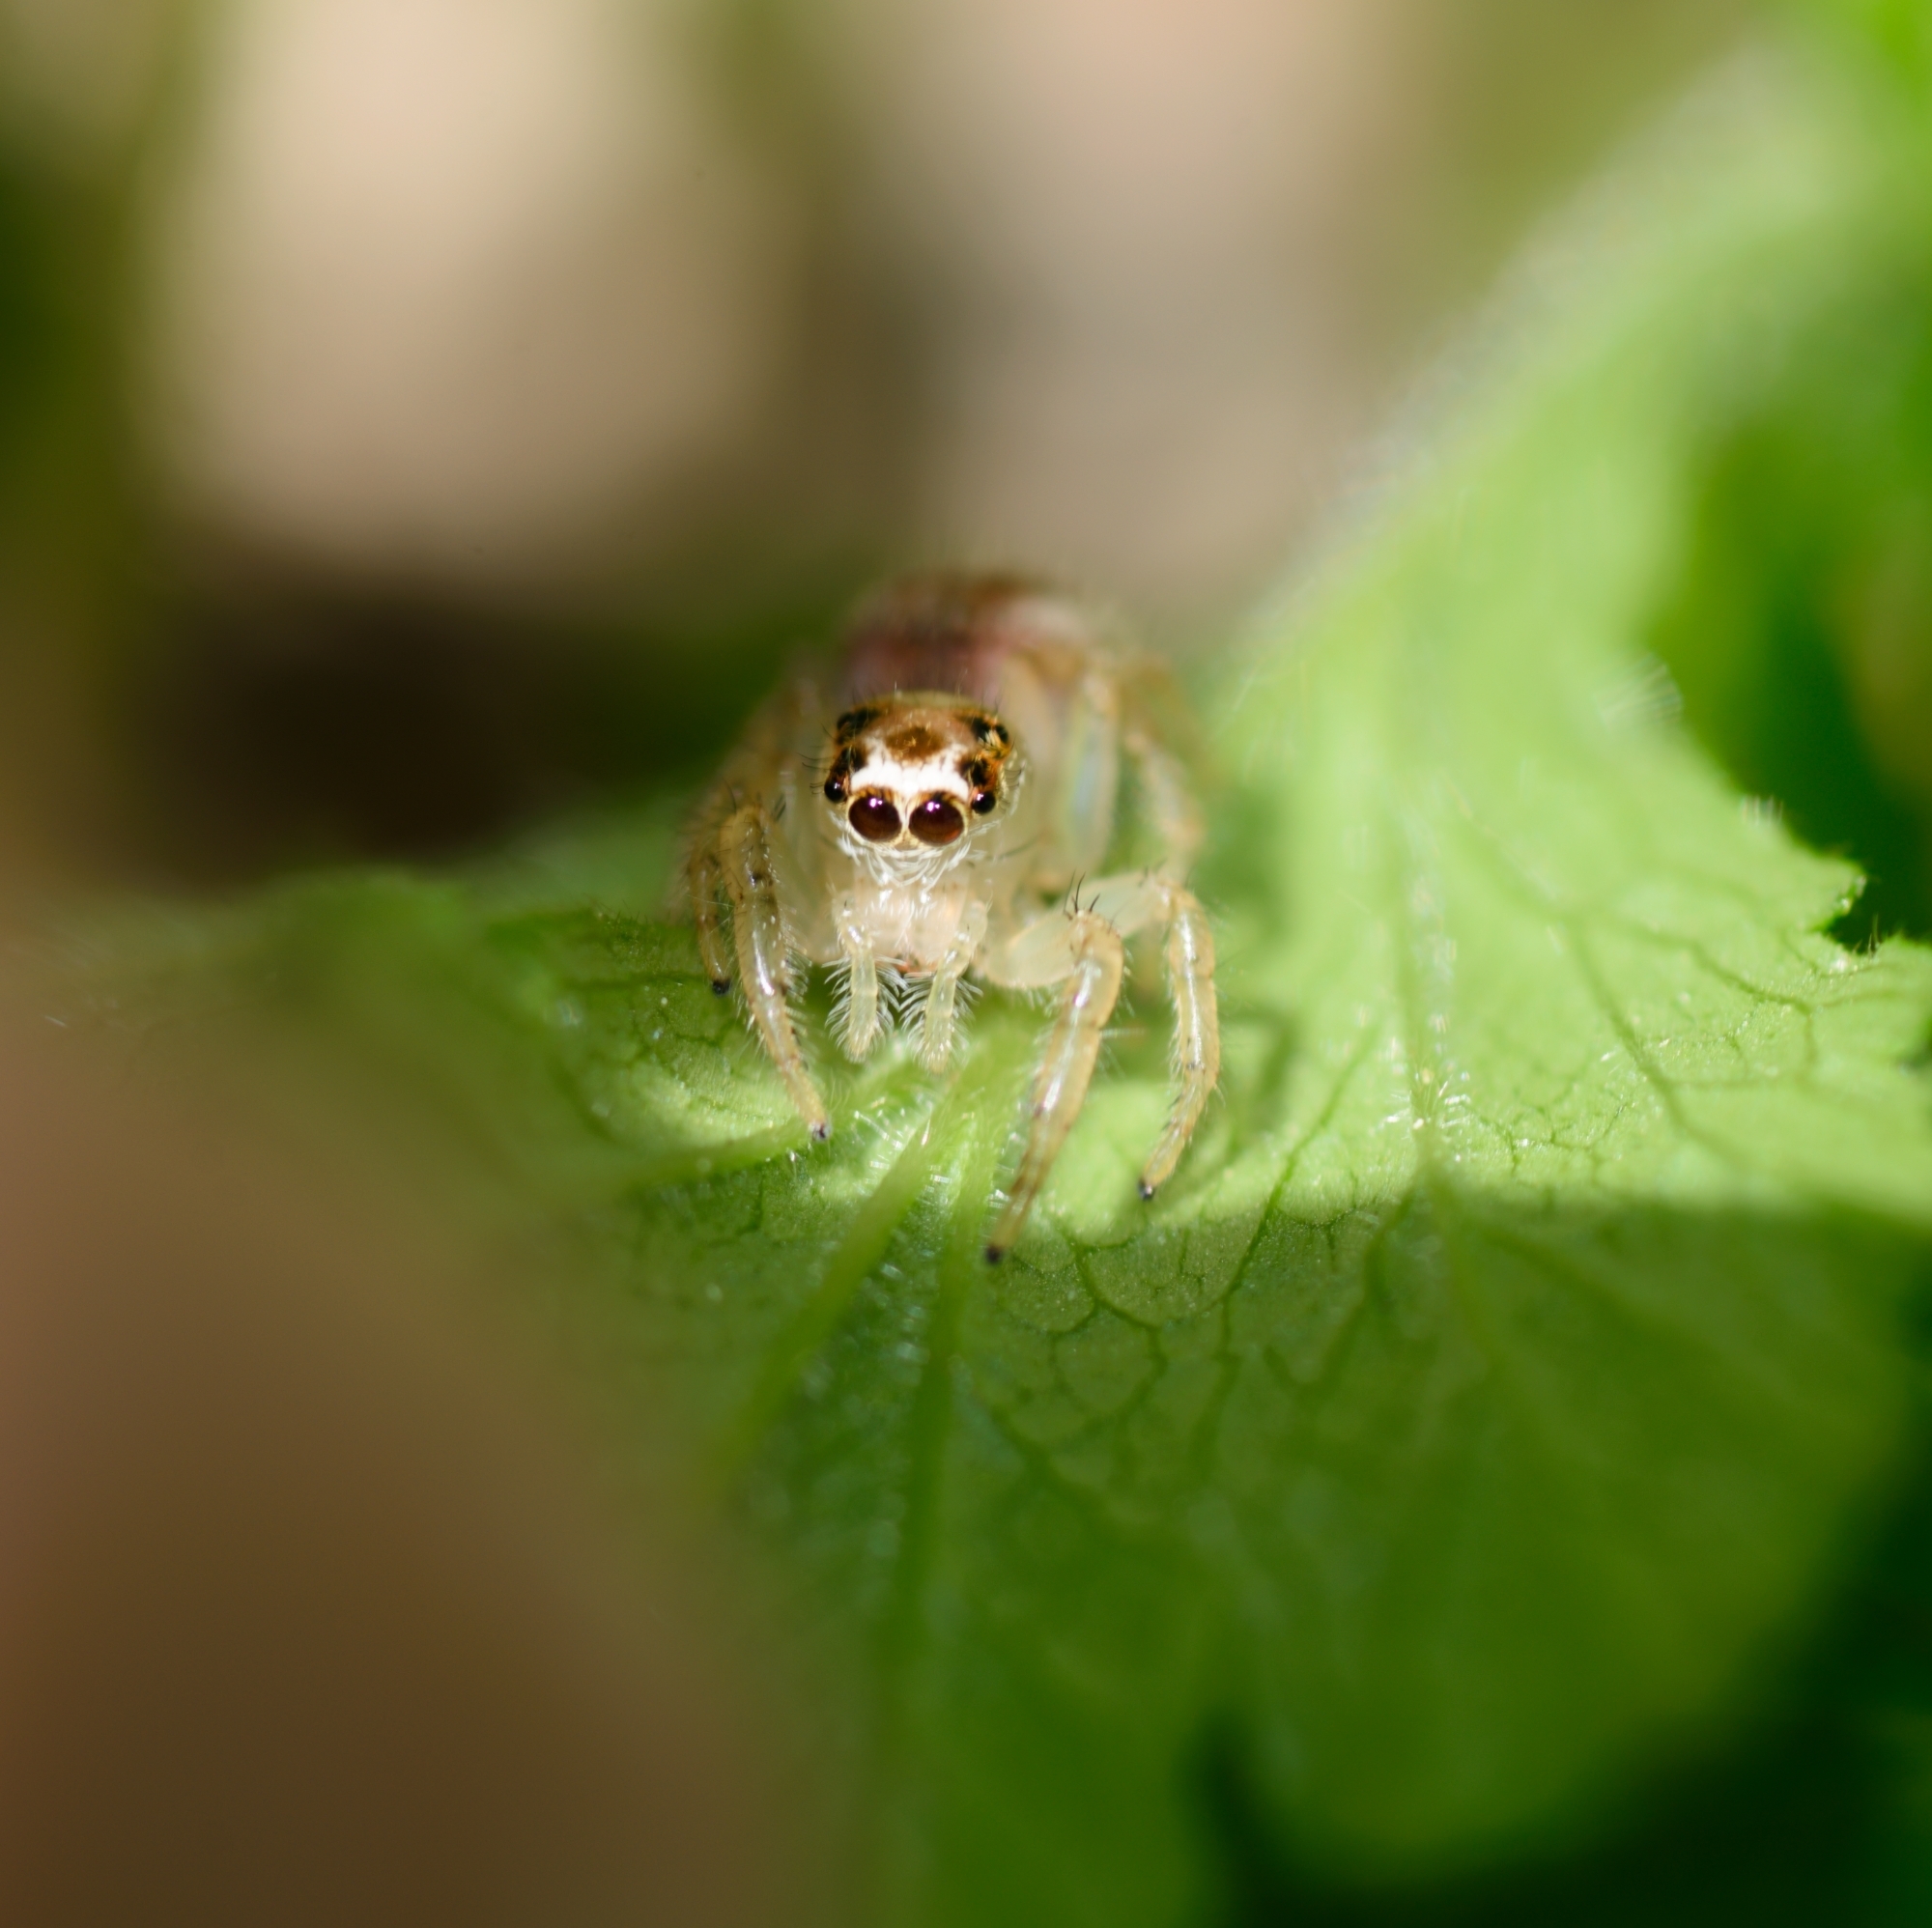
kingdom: Animalia
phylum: Arthropoda
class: Arachnida
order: Araneae
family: Salticidae
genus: Colonus
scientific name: Colonus sylvanus
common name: Jumping spiders
